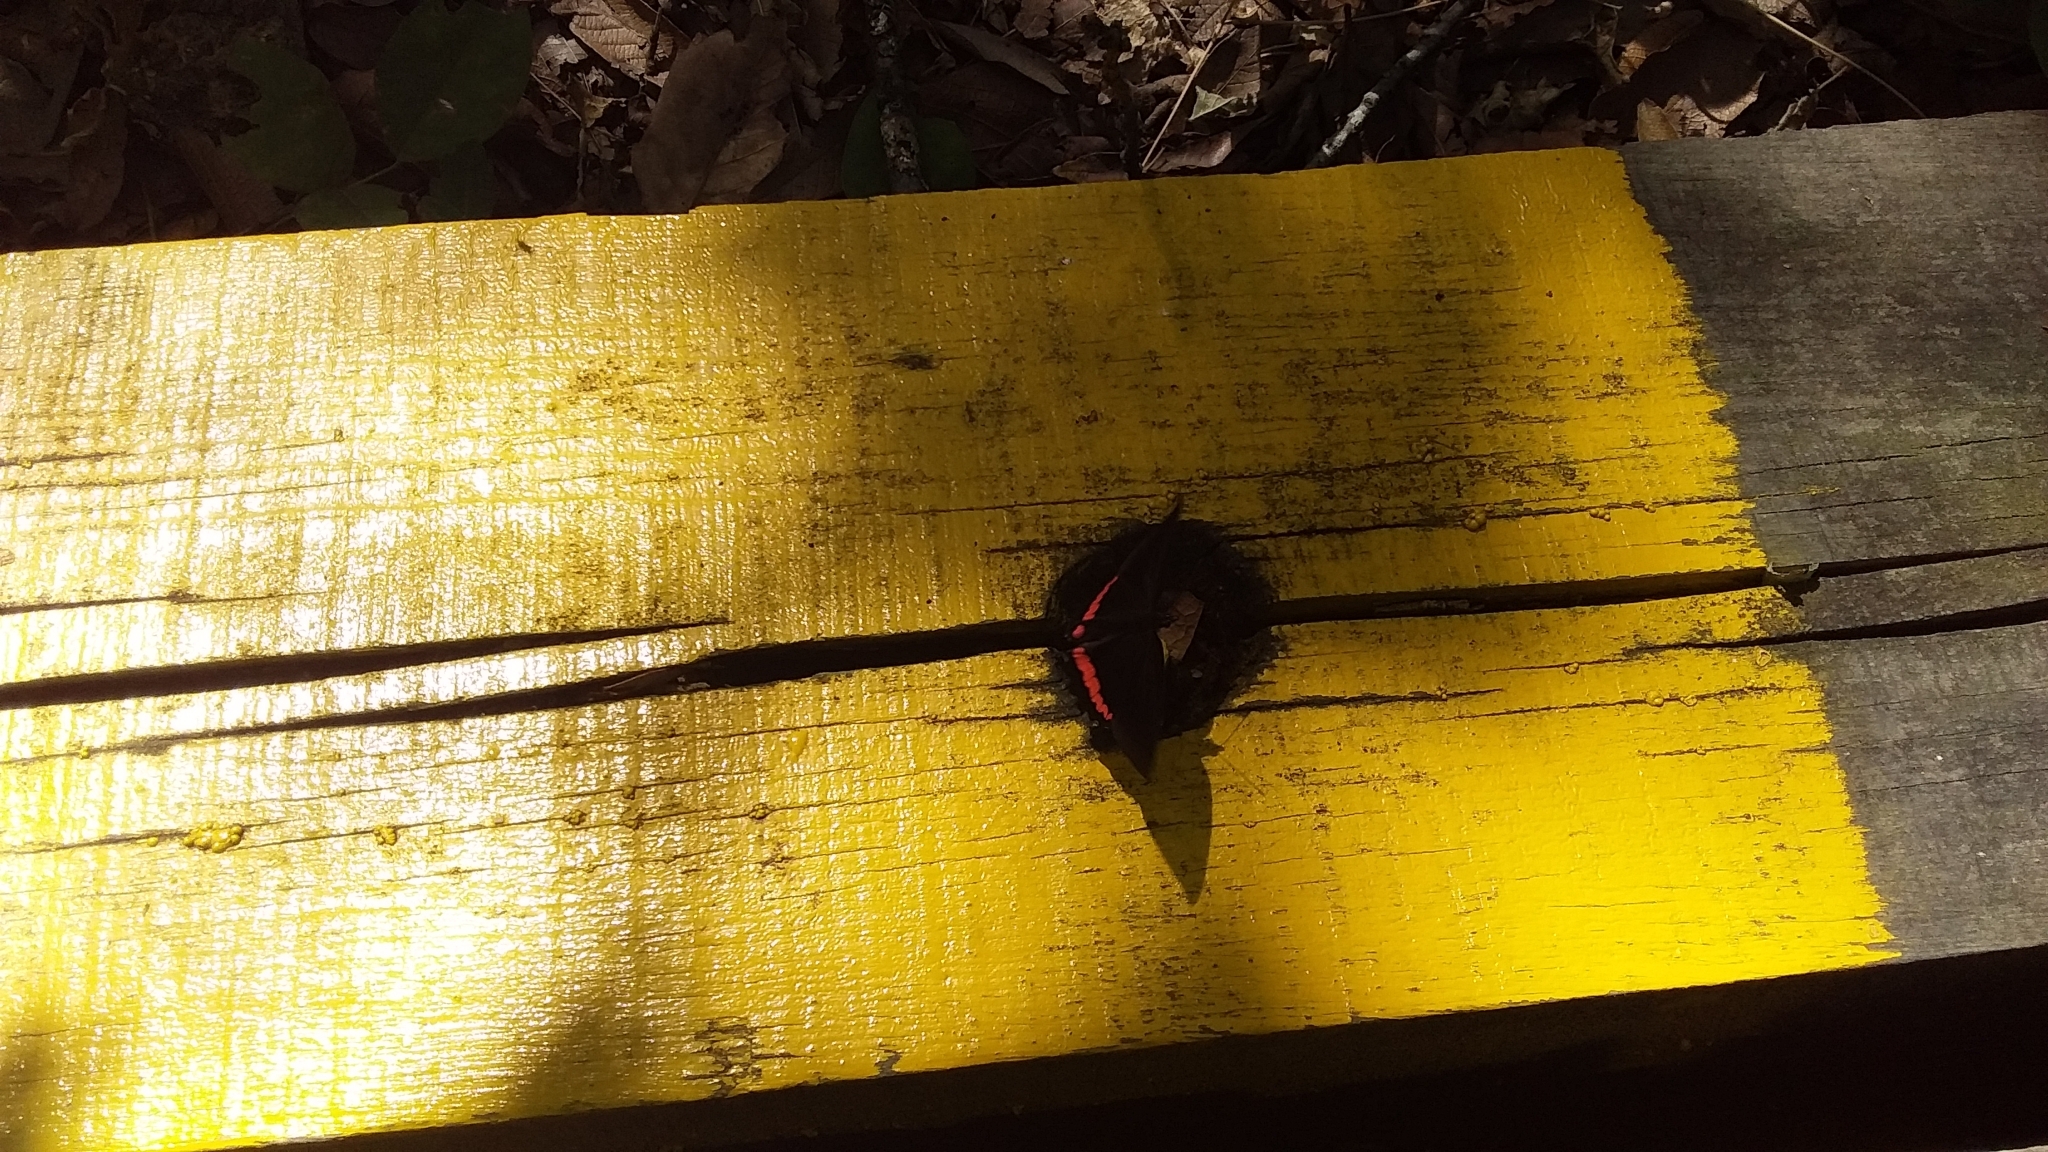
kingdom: Animalia
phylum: Arthropoda
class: Insecta
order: Lepidoptera
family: Nymphalidae
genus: Biblis
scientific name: Biblis aganisa
